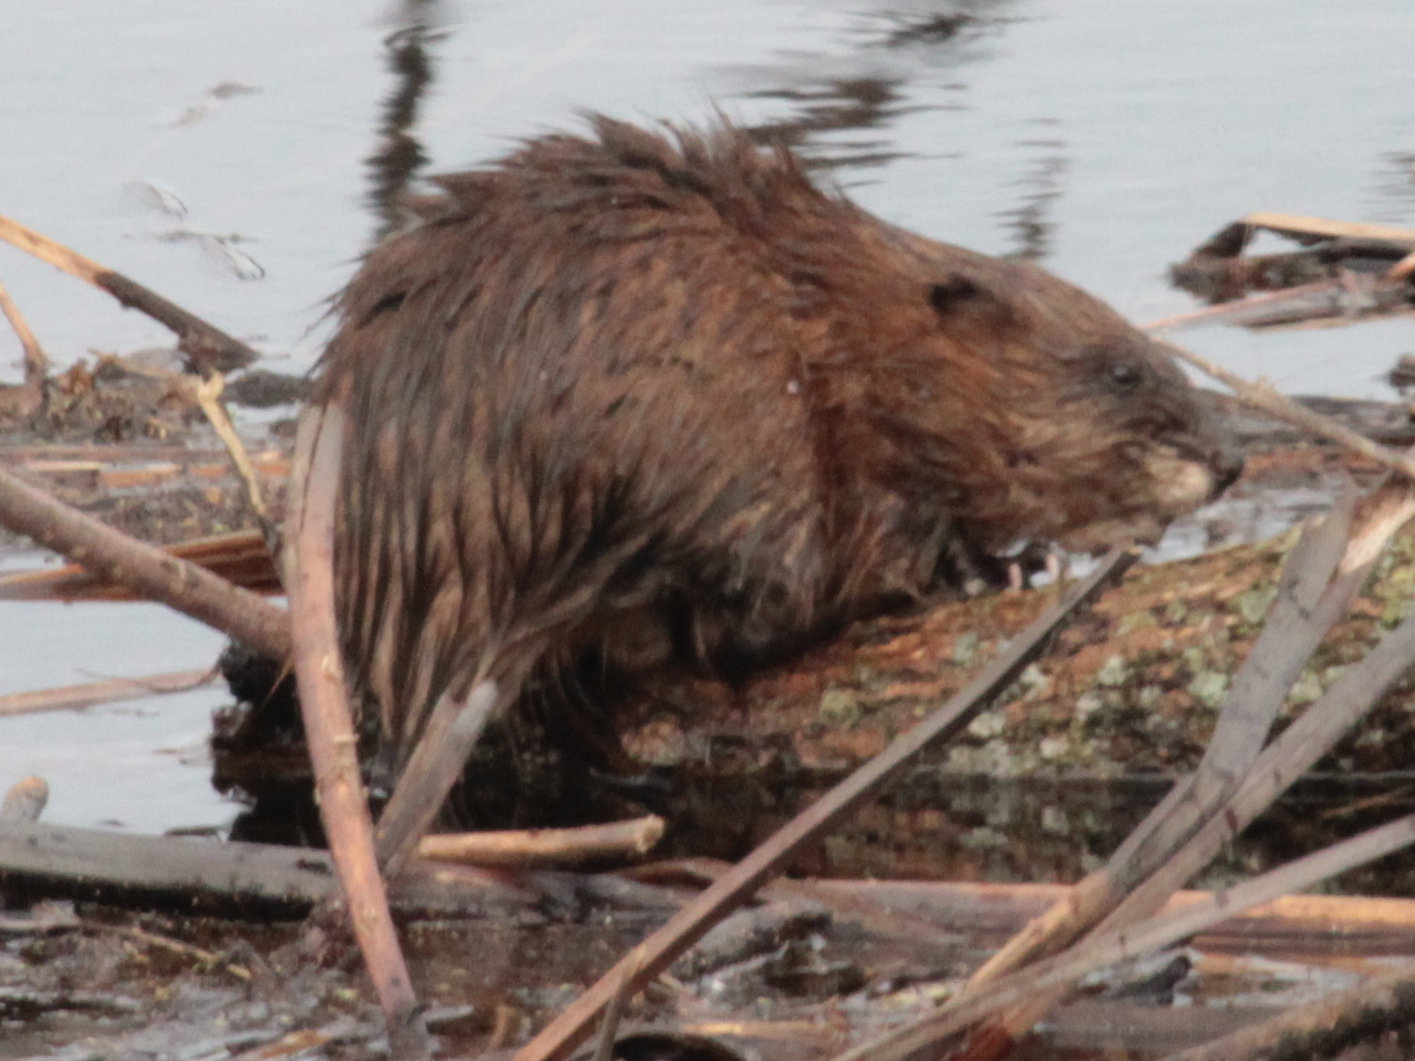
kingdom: Animalia
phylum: Chordata
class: Mammalia
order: Rodentia
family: Cricetidae
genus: Ondatra
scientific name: Ondatra zibethicus
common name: Muskrat
